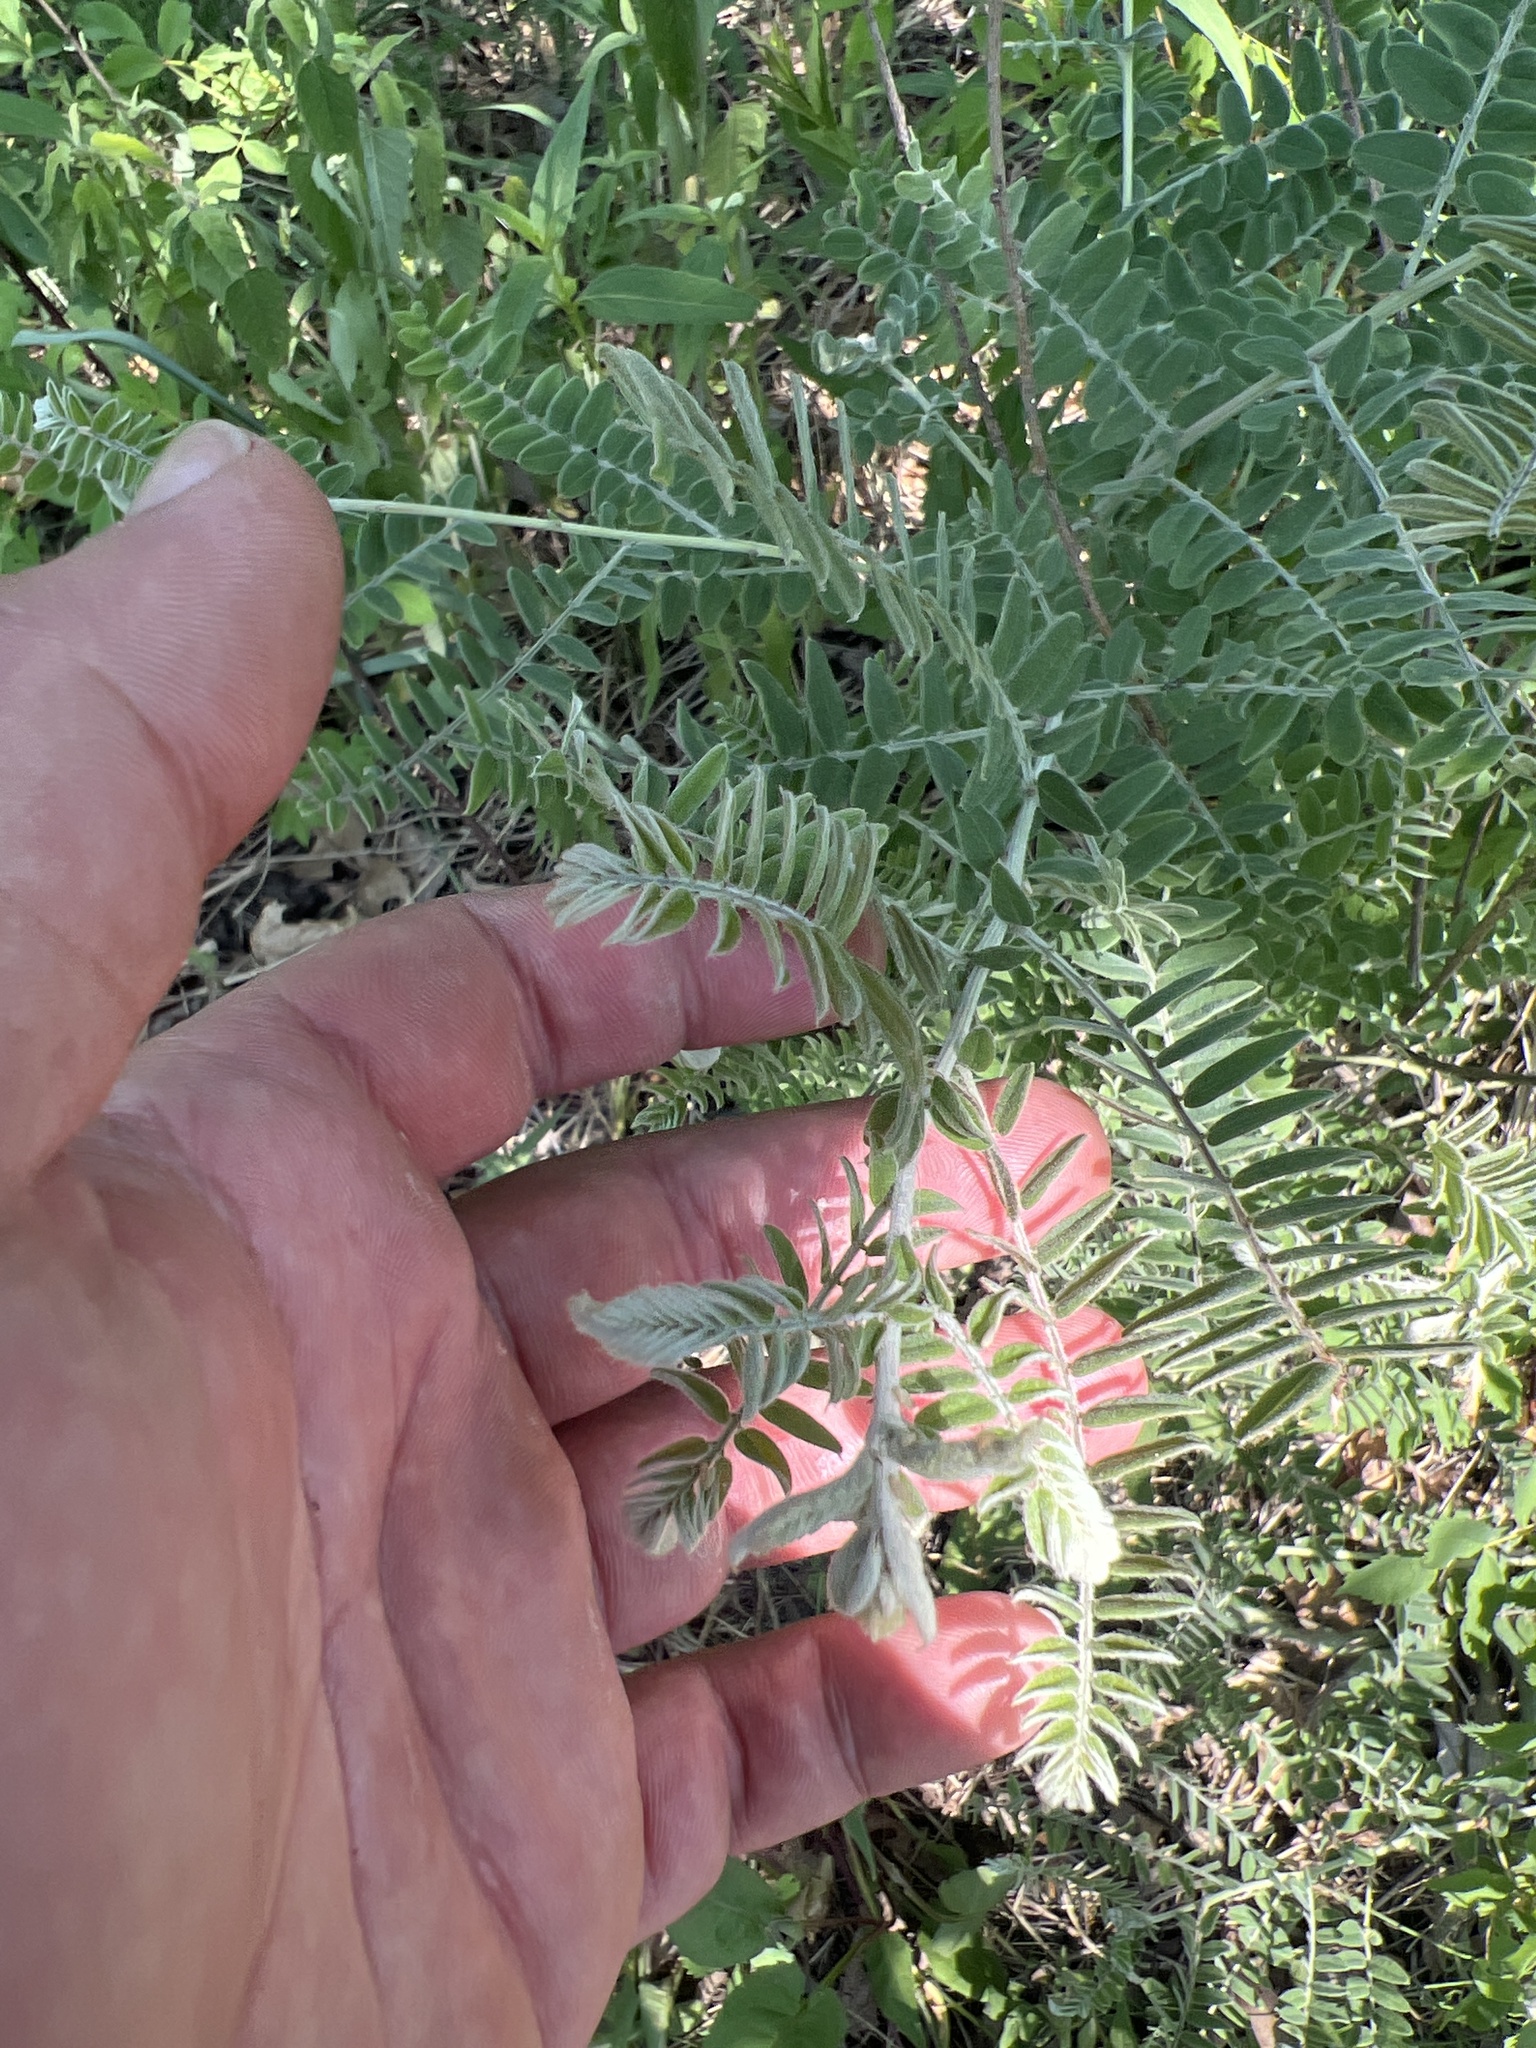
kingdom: Plantae
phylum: Tracheophyta
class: Magnoliopsida
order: Fabales
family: Fabaceae
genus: Amorpha
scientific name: Amorpha canescens
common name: Leadplant
